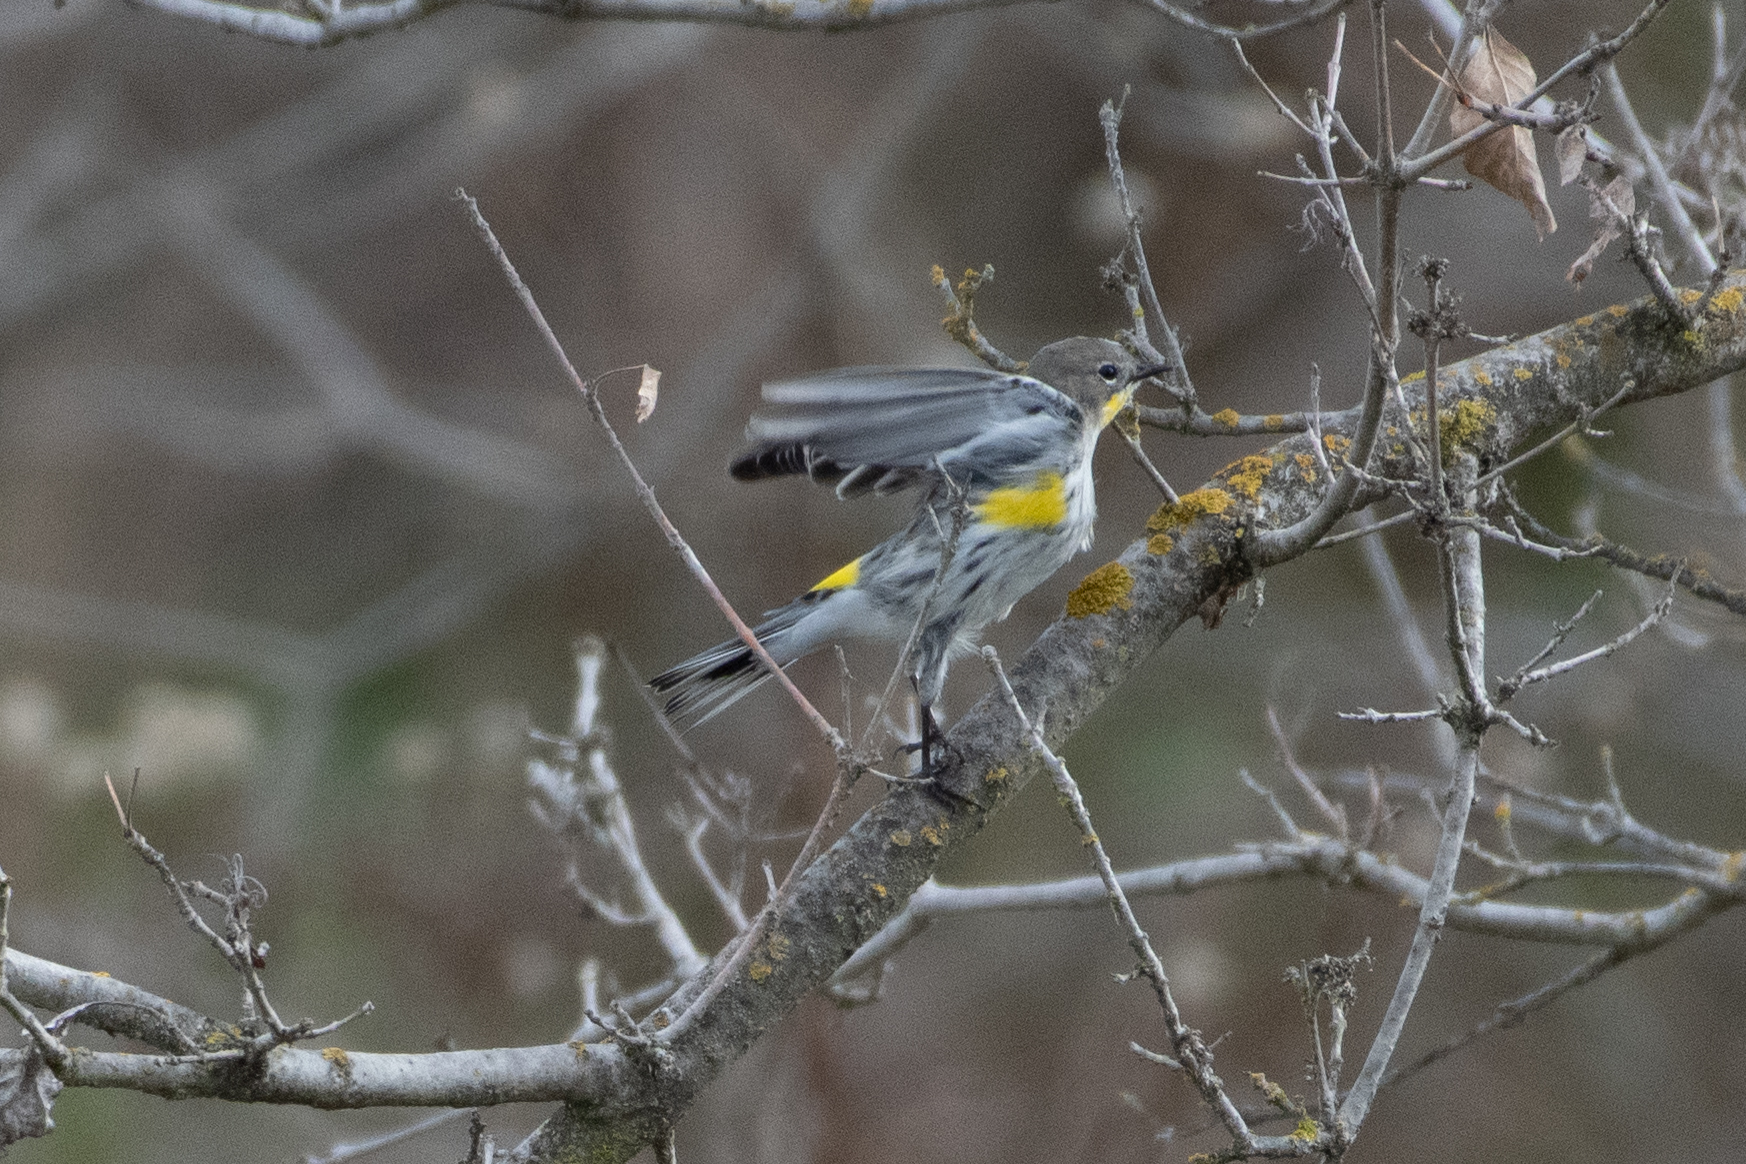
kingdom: Animalia
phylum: Chordata
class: Aves
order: Passeriformes
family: Parulidae
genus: Setophaga
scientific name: Setophaga coronata
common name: Myrtle warbler
